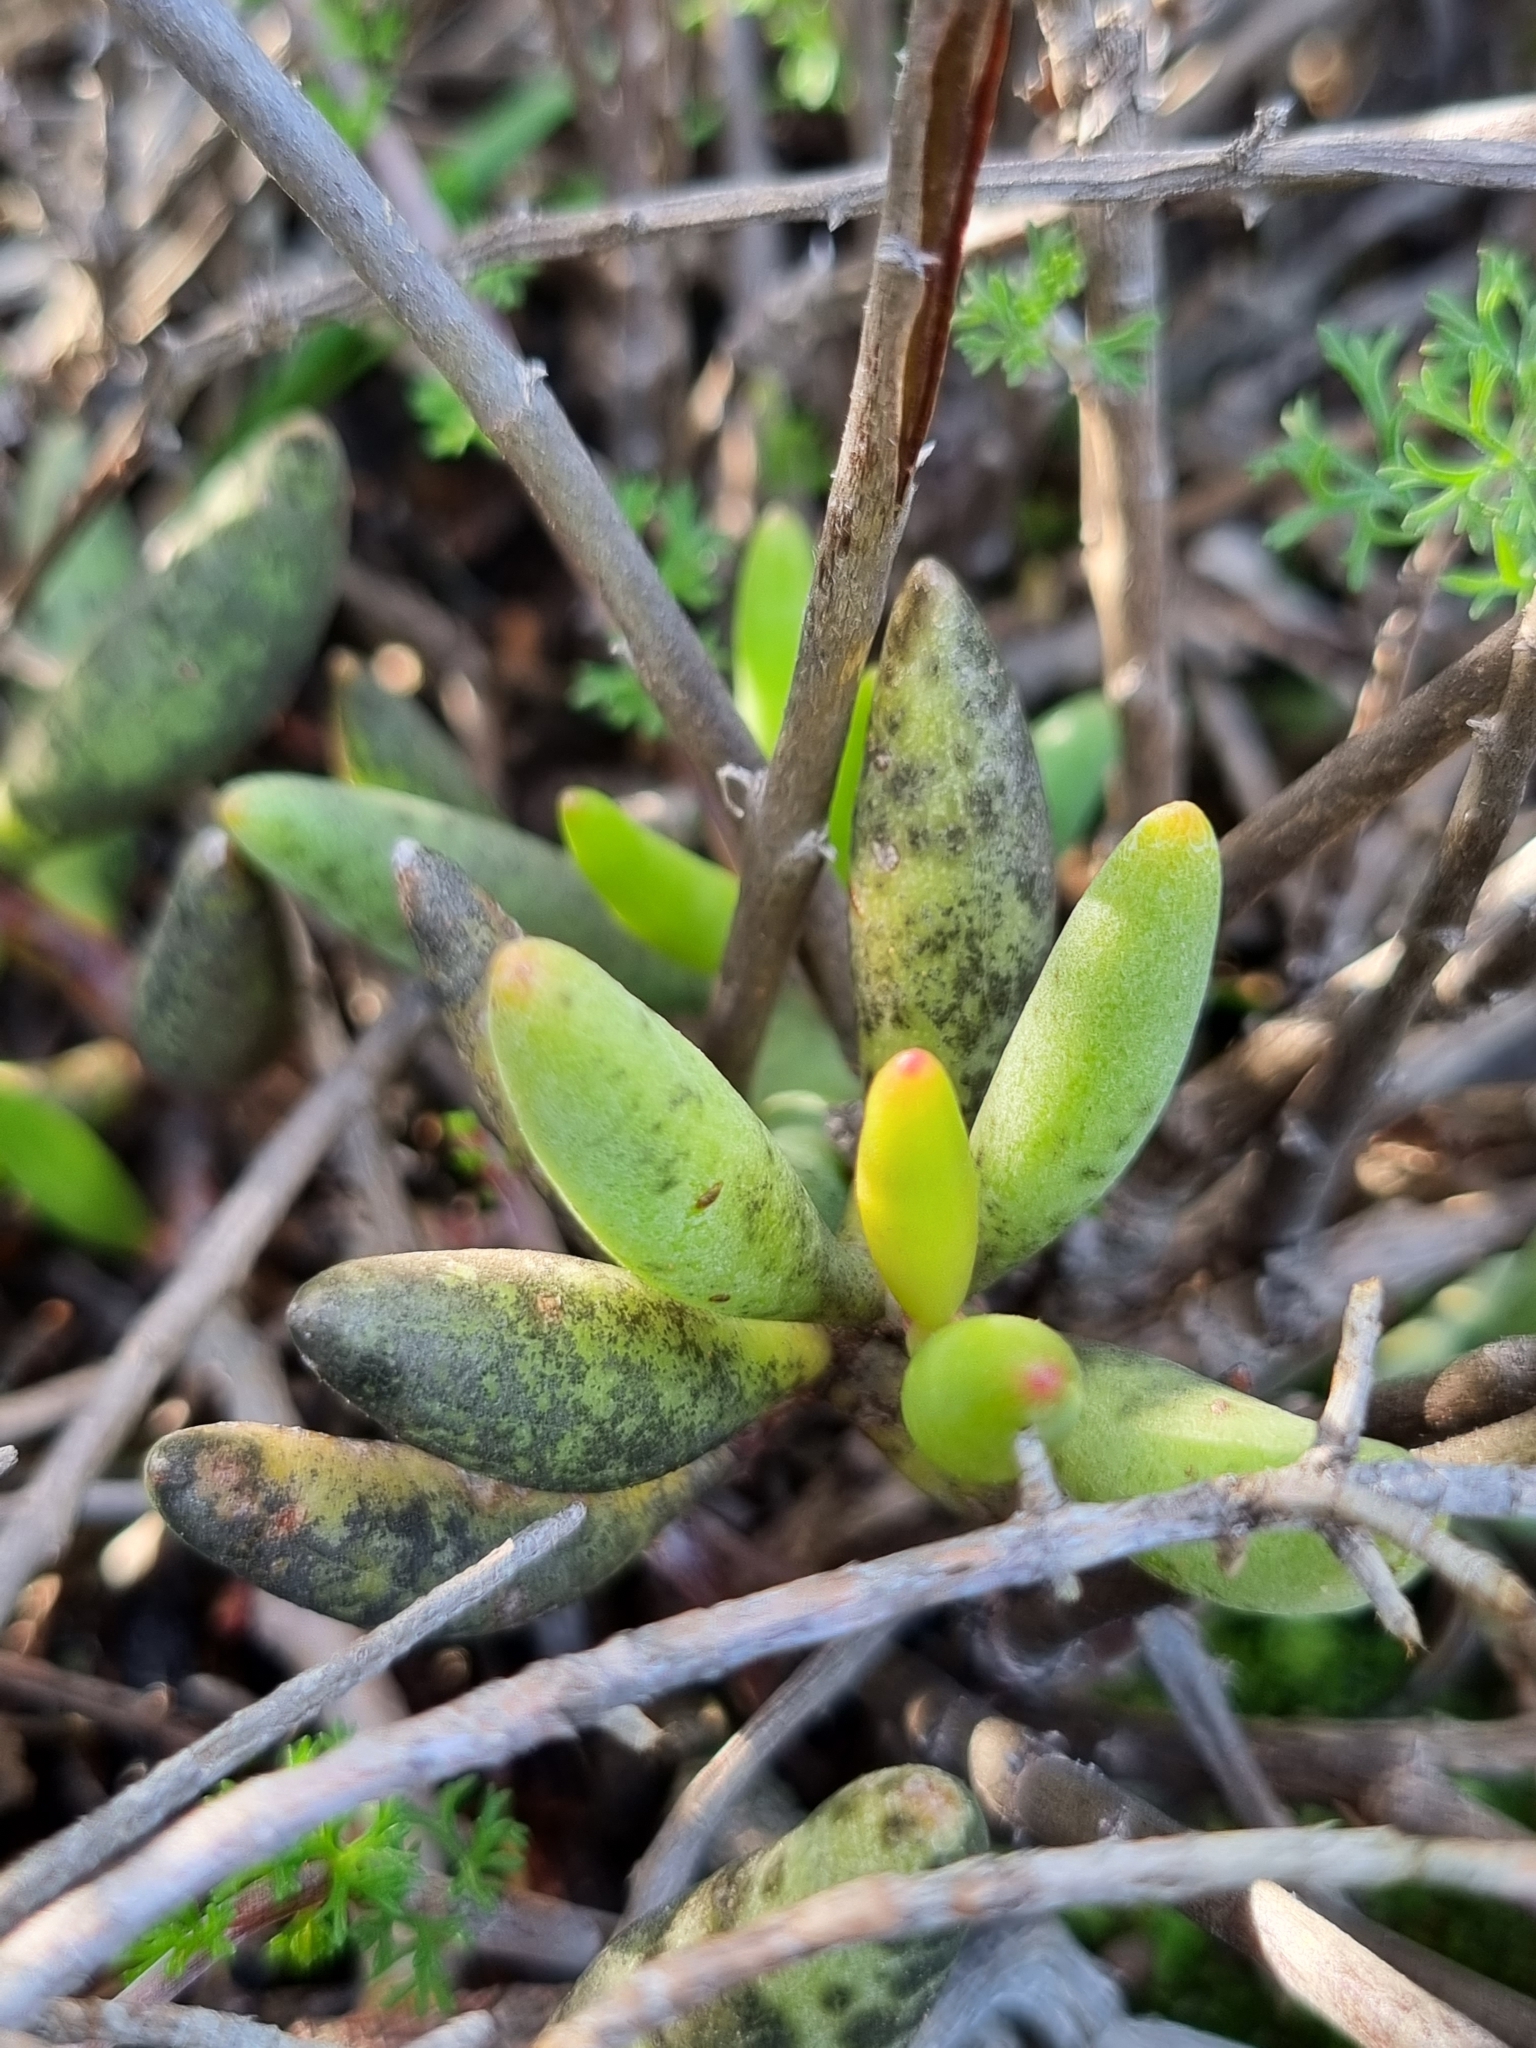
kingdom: Plantae
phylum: Tracheophyta
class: Magnoliopsida
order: Saxifragales
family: Crassulaceae
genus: Adromischus
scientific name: Adromischus filicaulis
